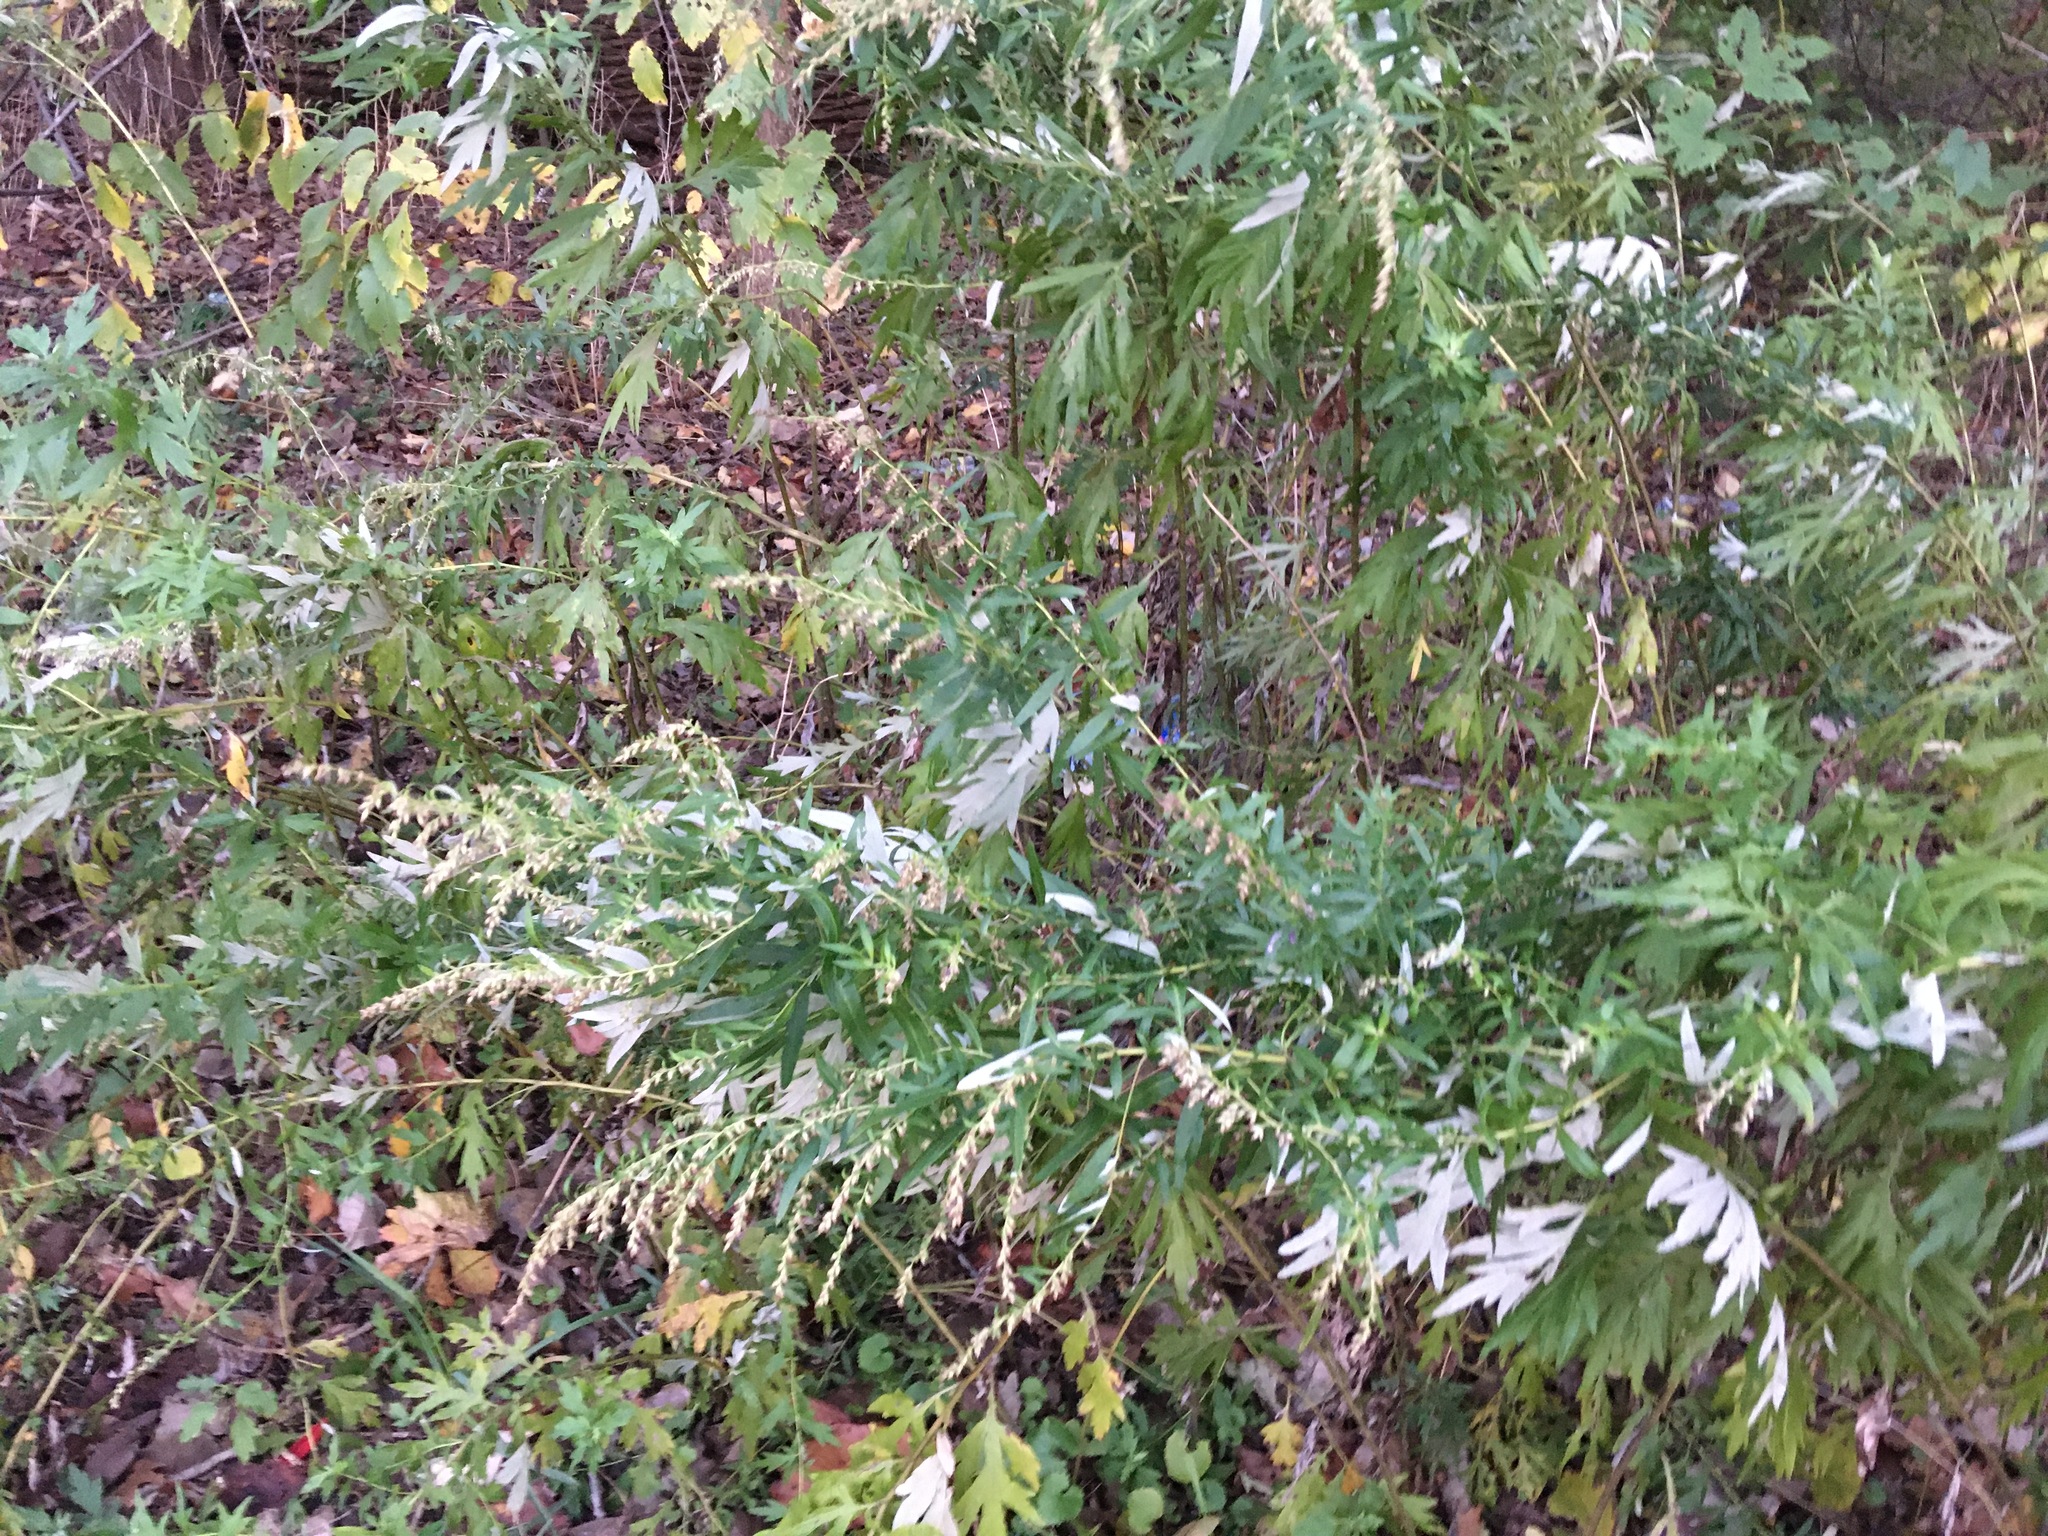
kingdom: Plantae
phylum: Tracheophyta
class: Magnoliopsida
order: Asterales
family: Asteraceae
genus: Artemisia
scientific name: Artemisia vulgaris
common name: Mugwort
